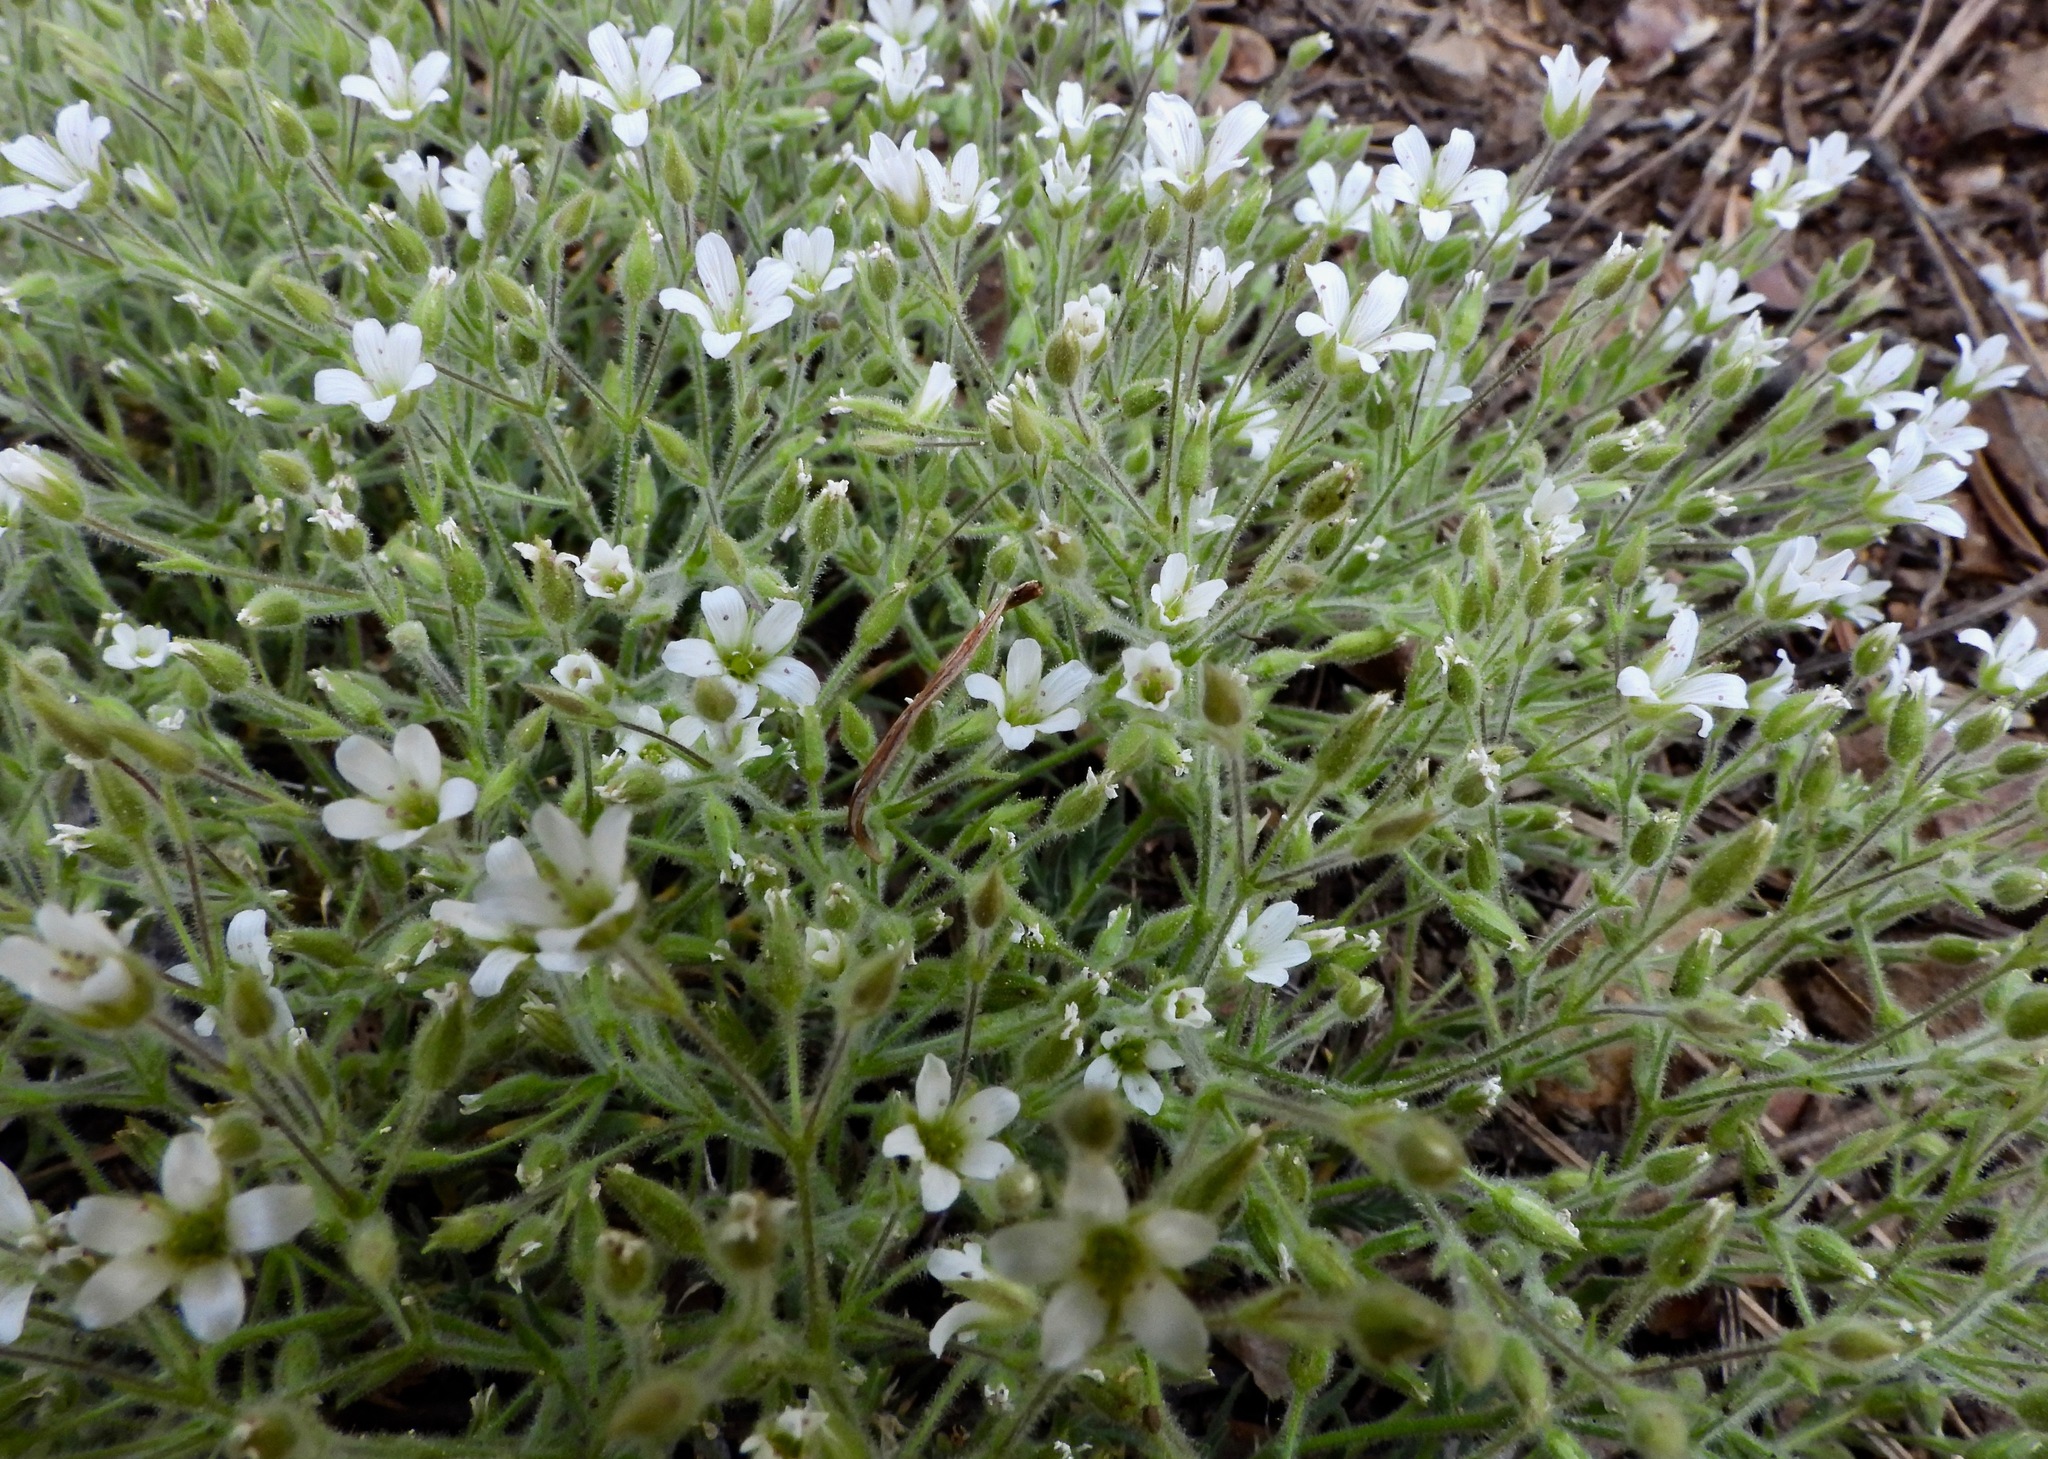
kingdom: Plantae
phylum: Tracheophyta
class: Magnoliopsida
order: Caryophyllales
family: Caryophyllaceae
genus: Sabulina
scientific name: Sabulina nuttallii
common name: Nuttall's stitchwort
